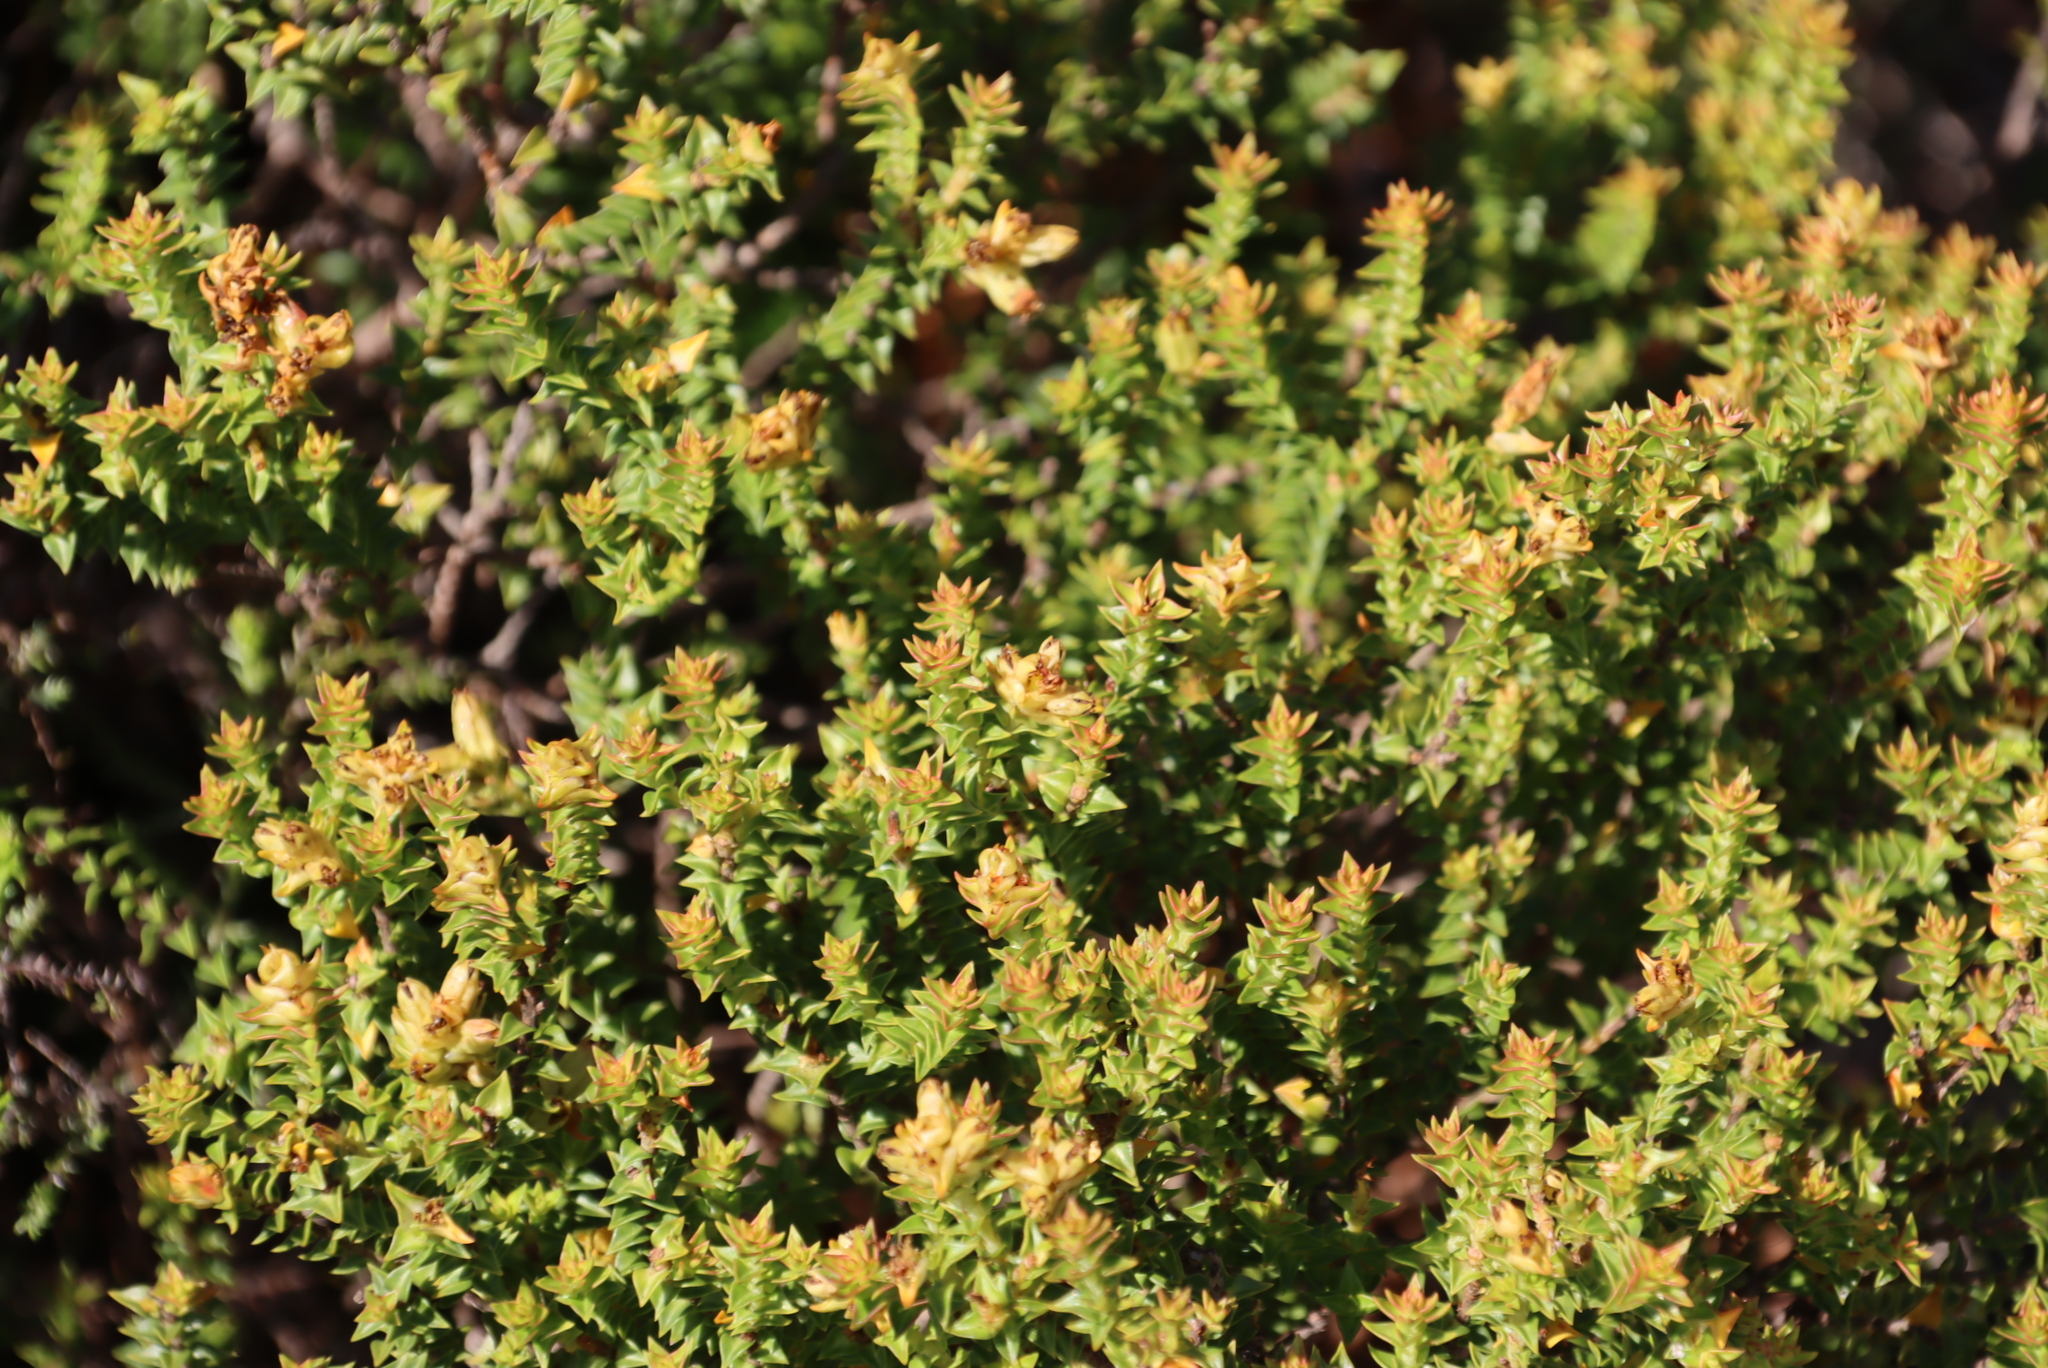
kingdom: Plantae
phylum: Tracheophyta
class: Magnoliopsida
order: Myrtales
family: Penaeaceae
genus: Penaea
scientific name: Penaea mucronata
